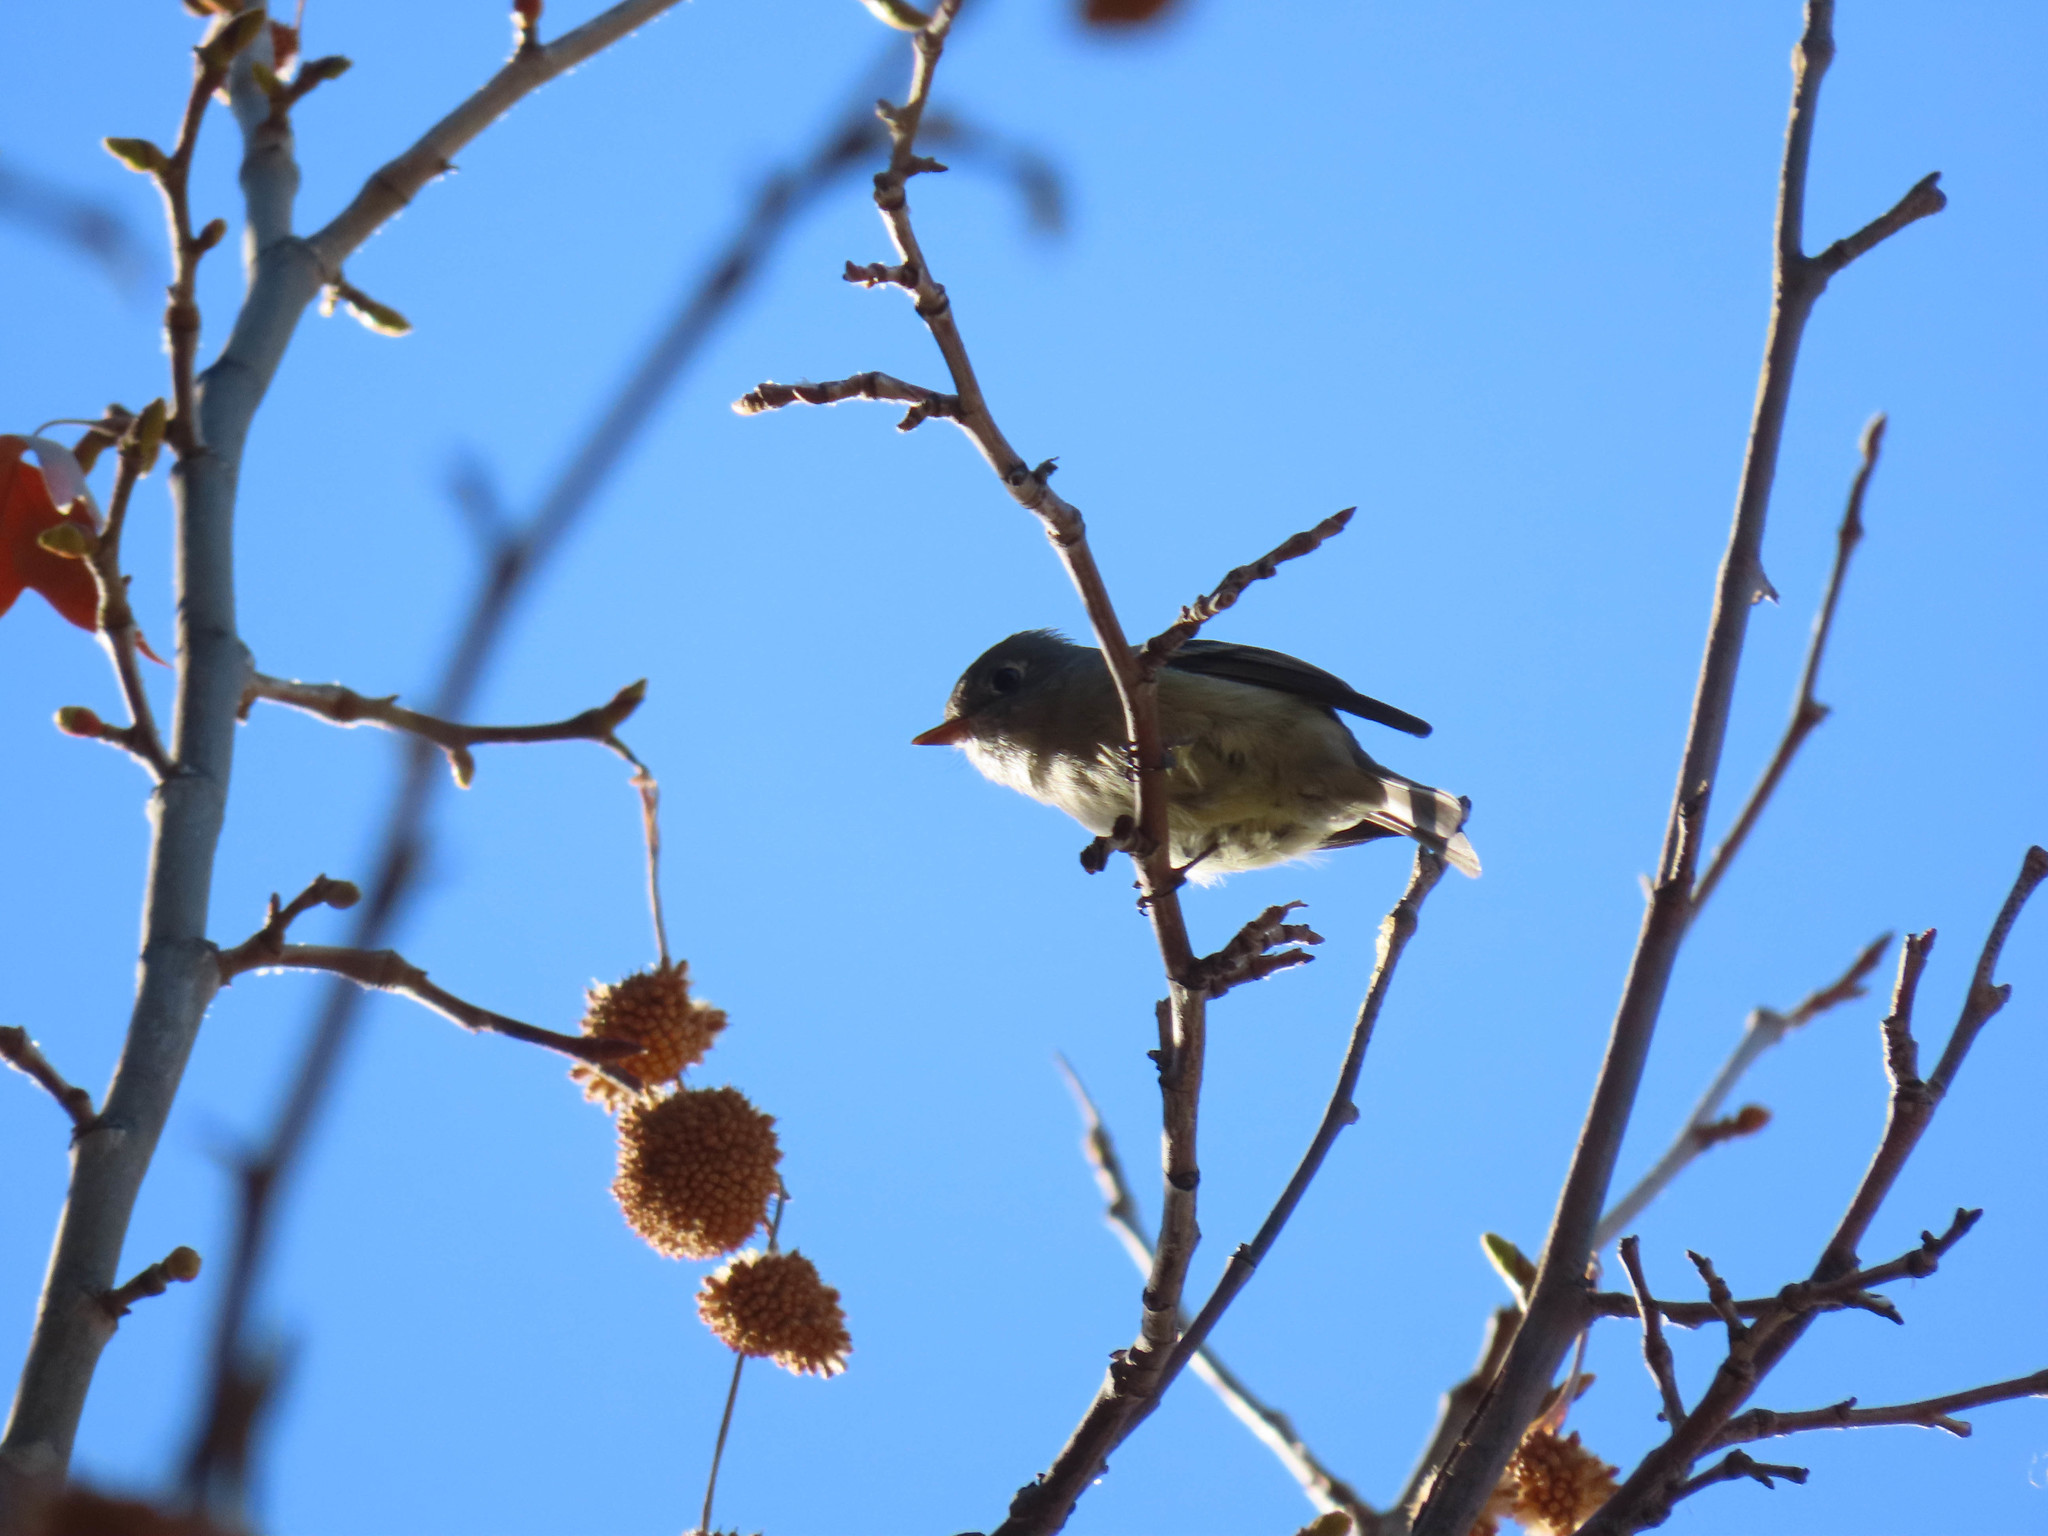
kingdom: Animalia
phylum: Chordata
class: Aves
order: Passeriformes
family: Tyrannidae
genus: Empidonax
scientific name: Empidonax
